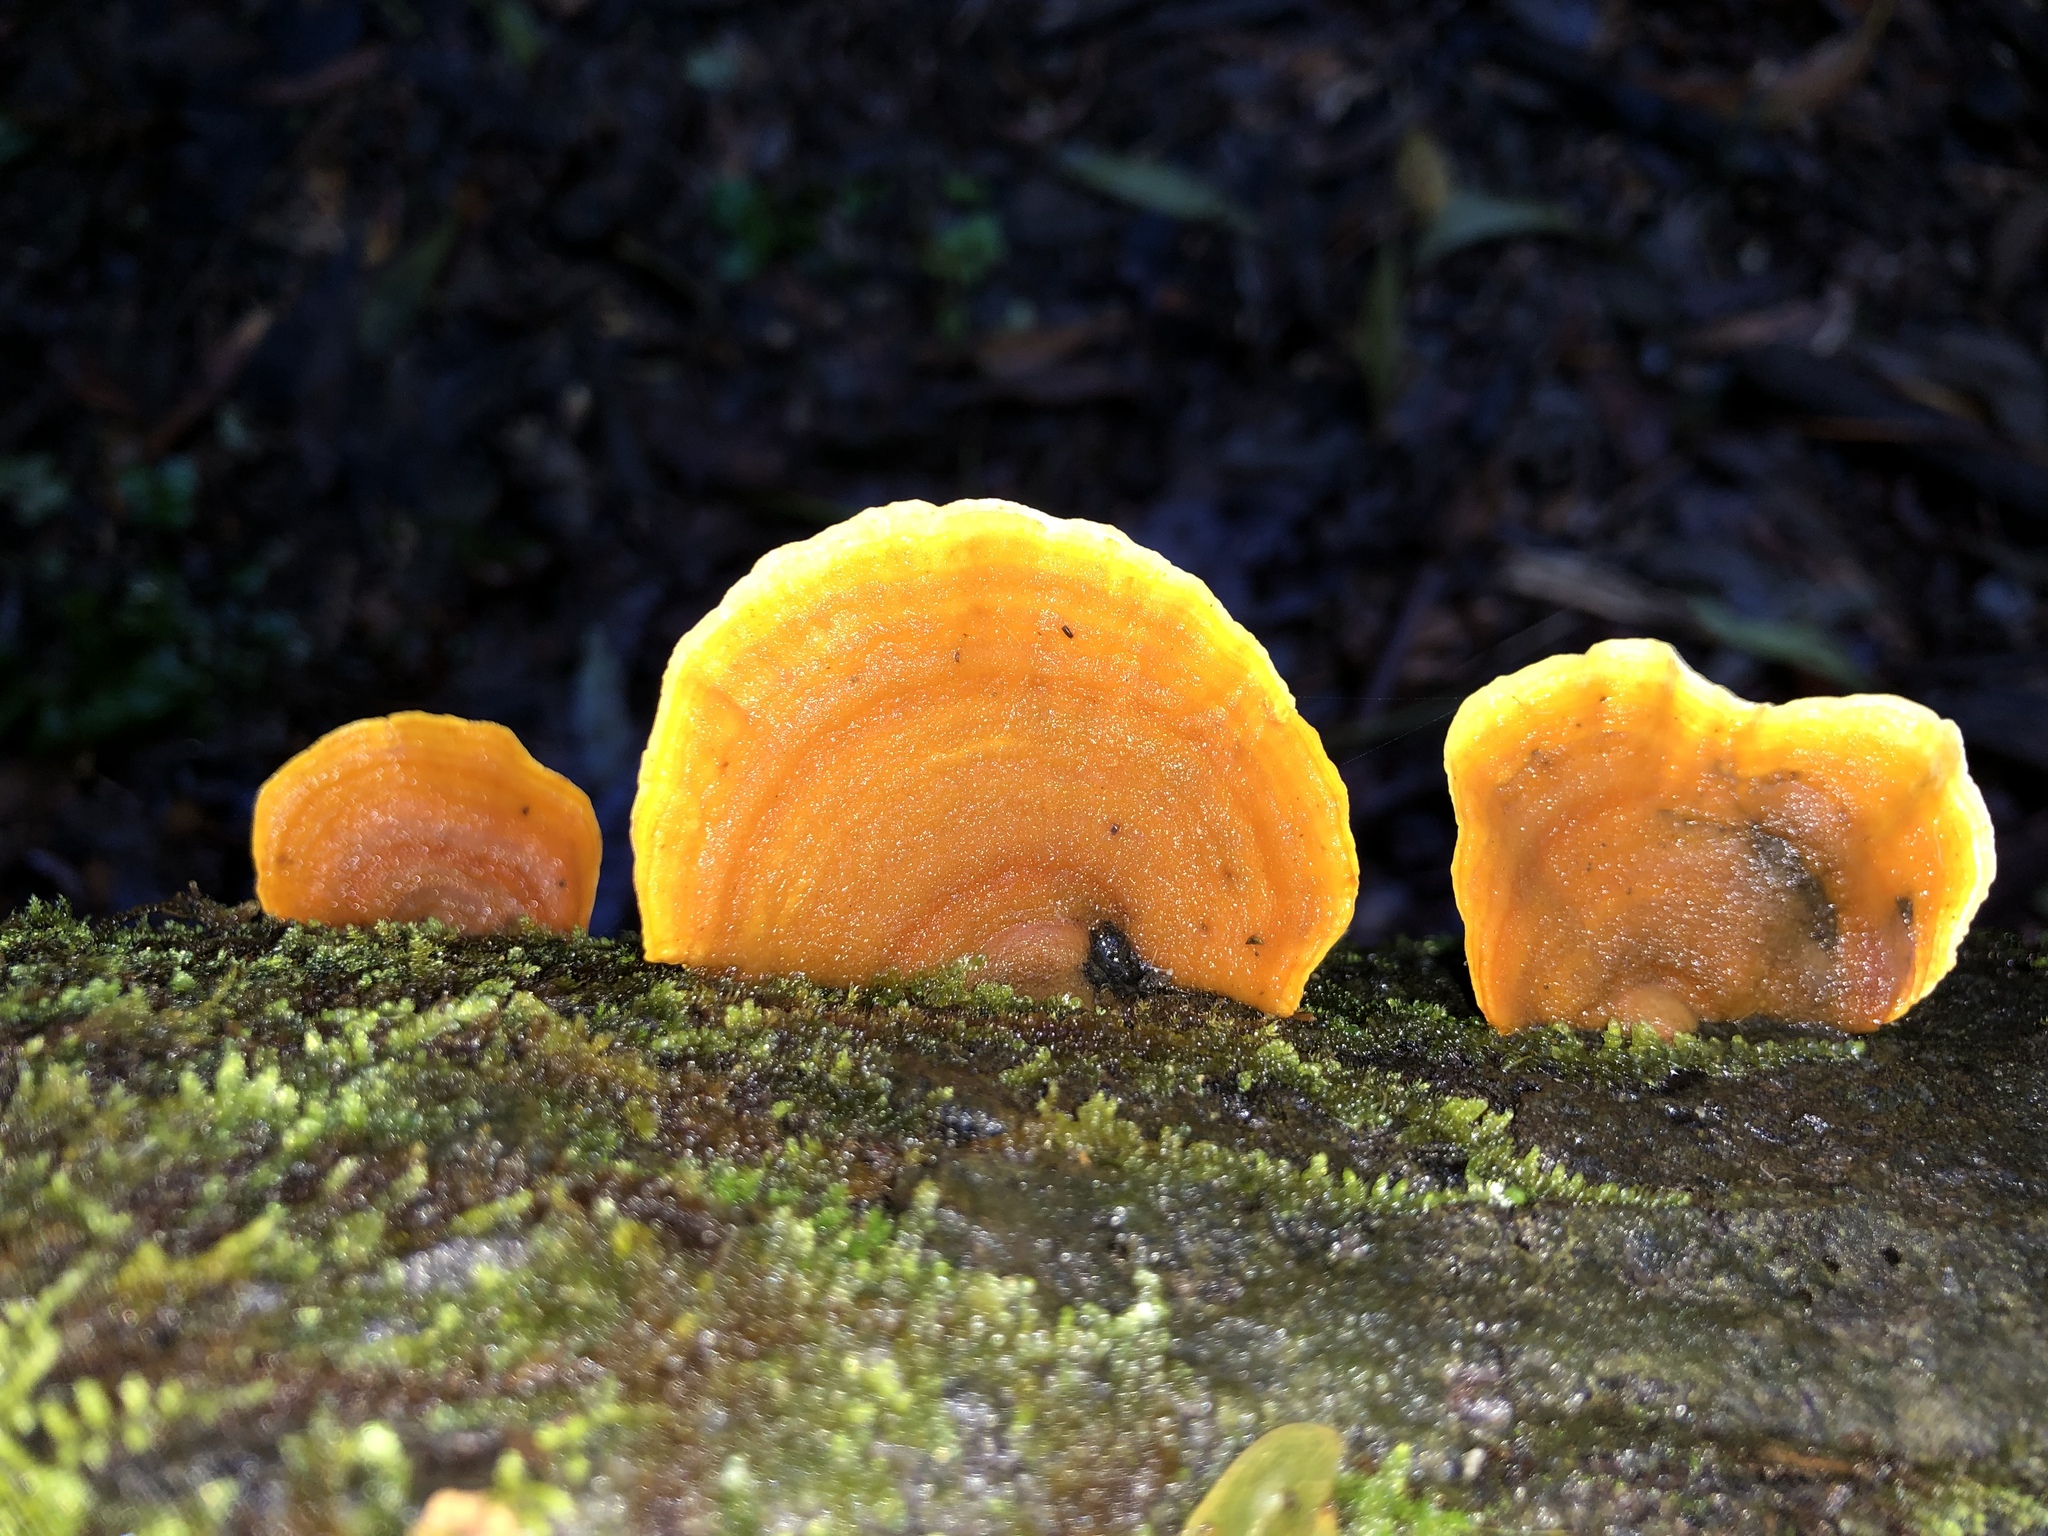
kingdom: Fungi
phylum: Basidiomycota
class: Agaricomycetes
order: Russulales
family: Stereaceae
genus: Stereum
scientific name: Stereum versicolor
